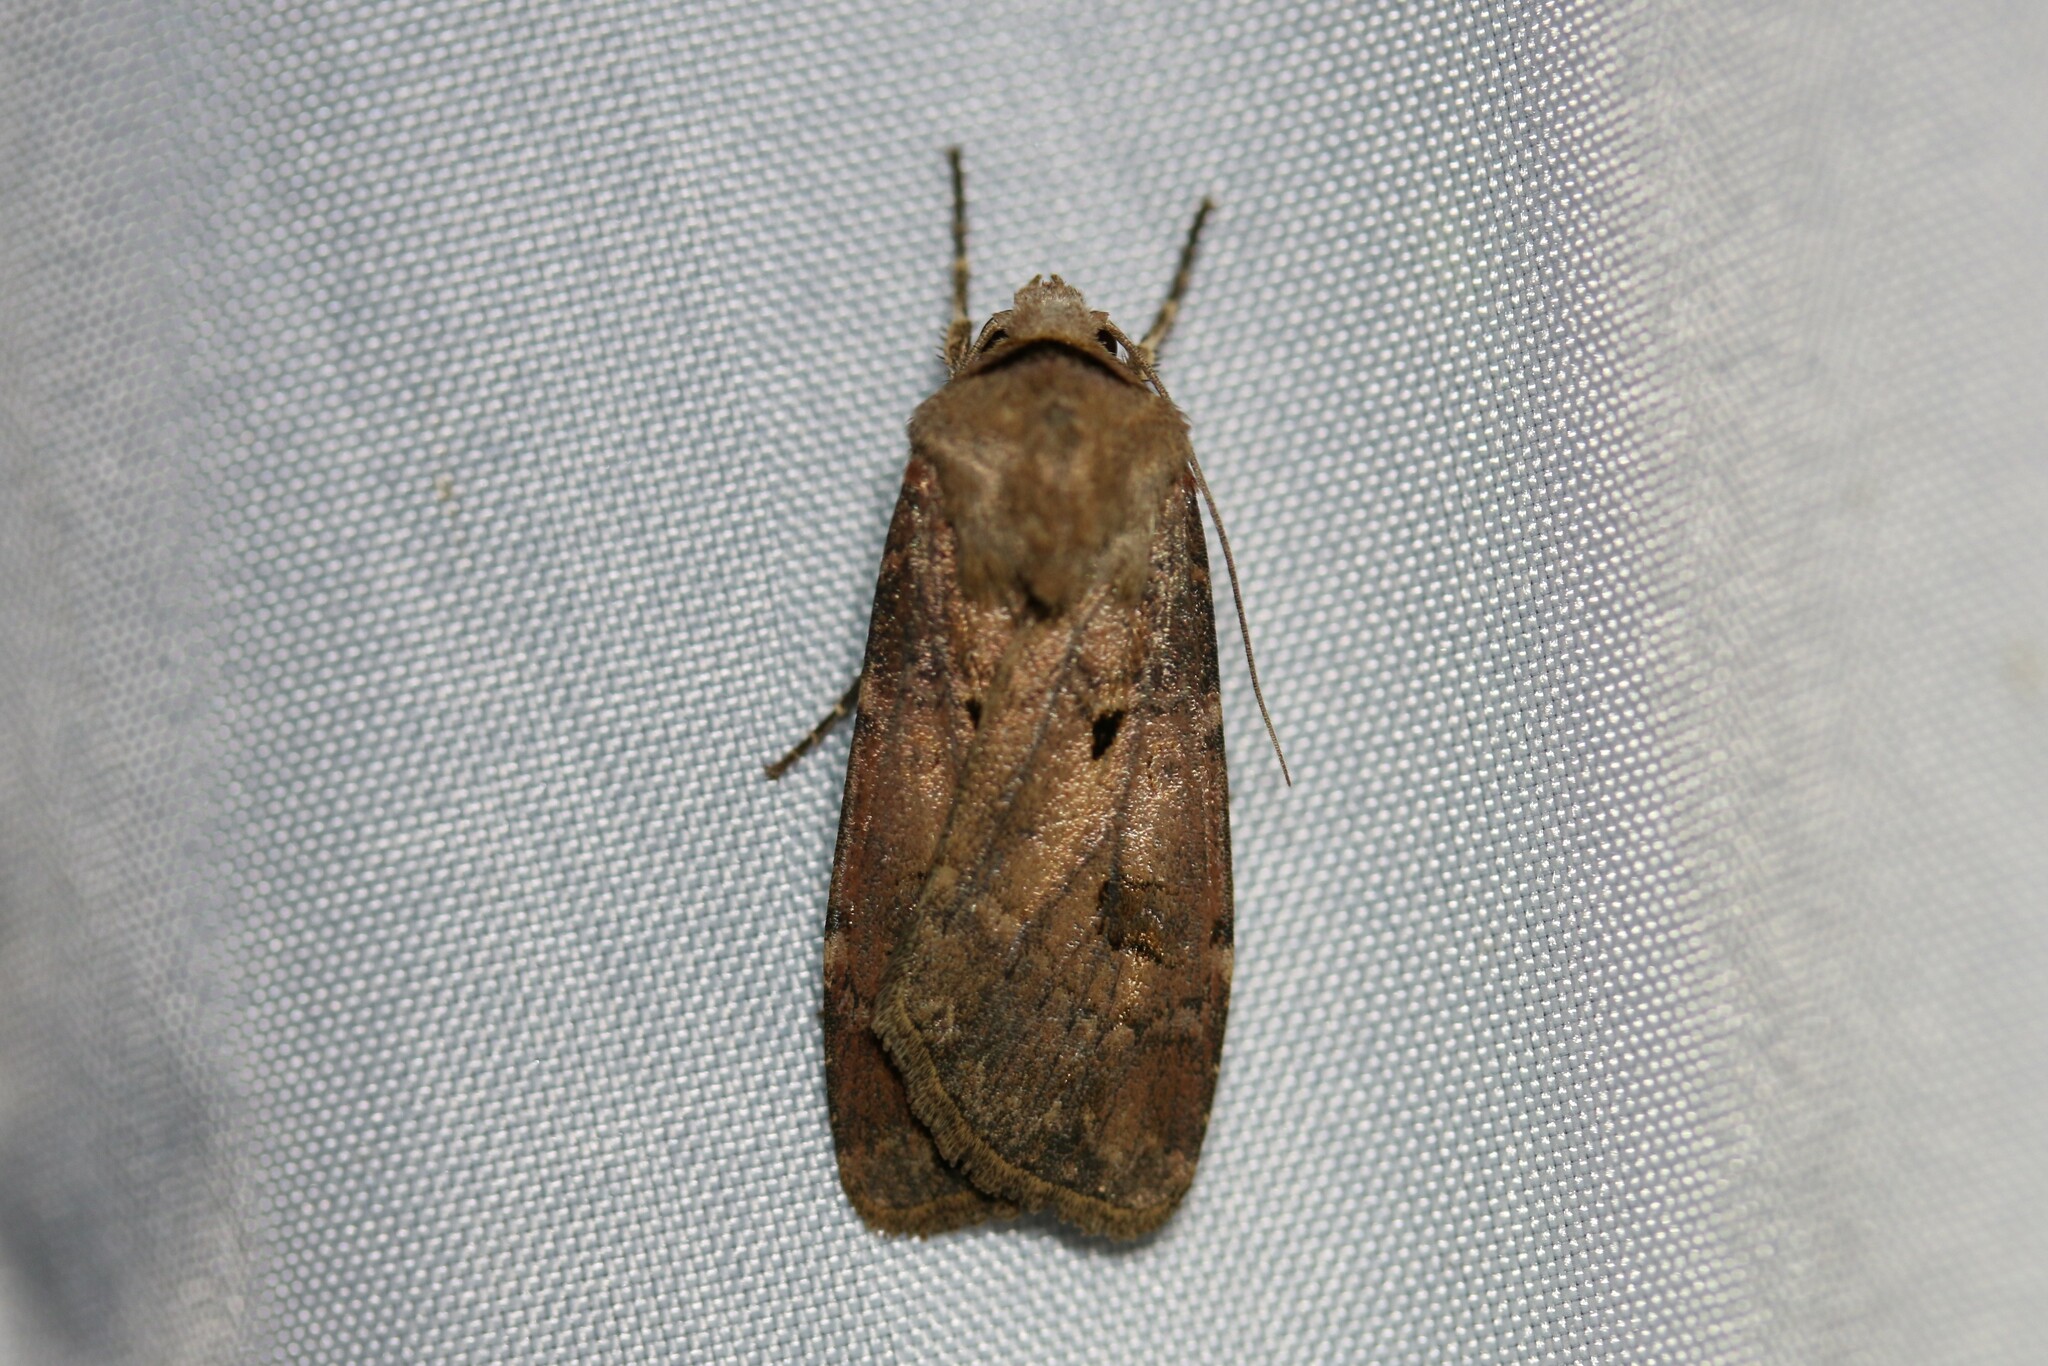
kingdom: Animalia
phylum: Arthropoda
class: Insecta
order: Lepidoptera
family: Noctuidae
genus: Agrotis
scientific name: Agrotis exclamationis
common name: Heart and dart
